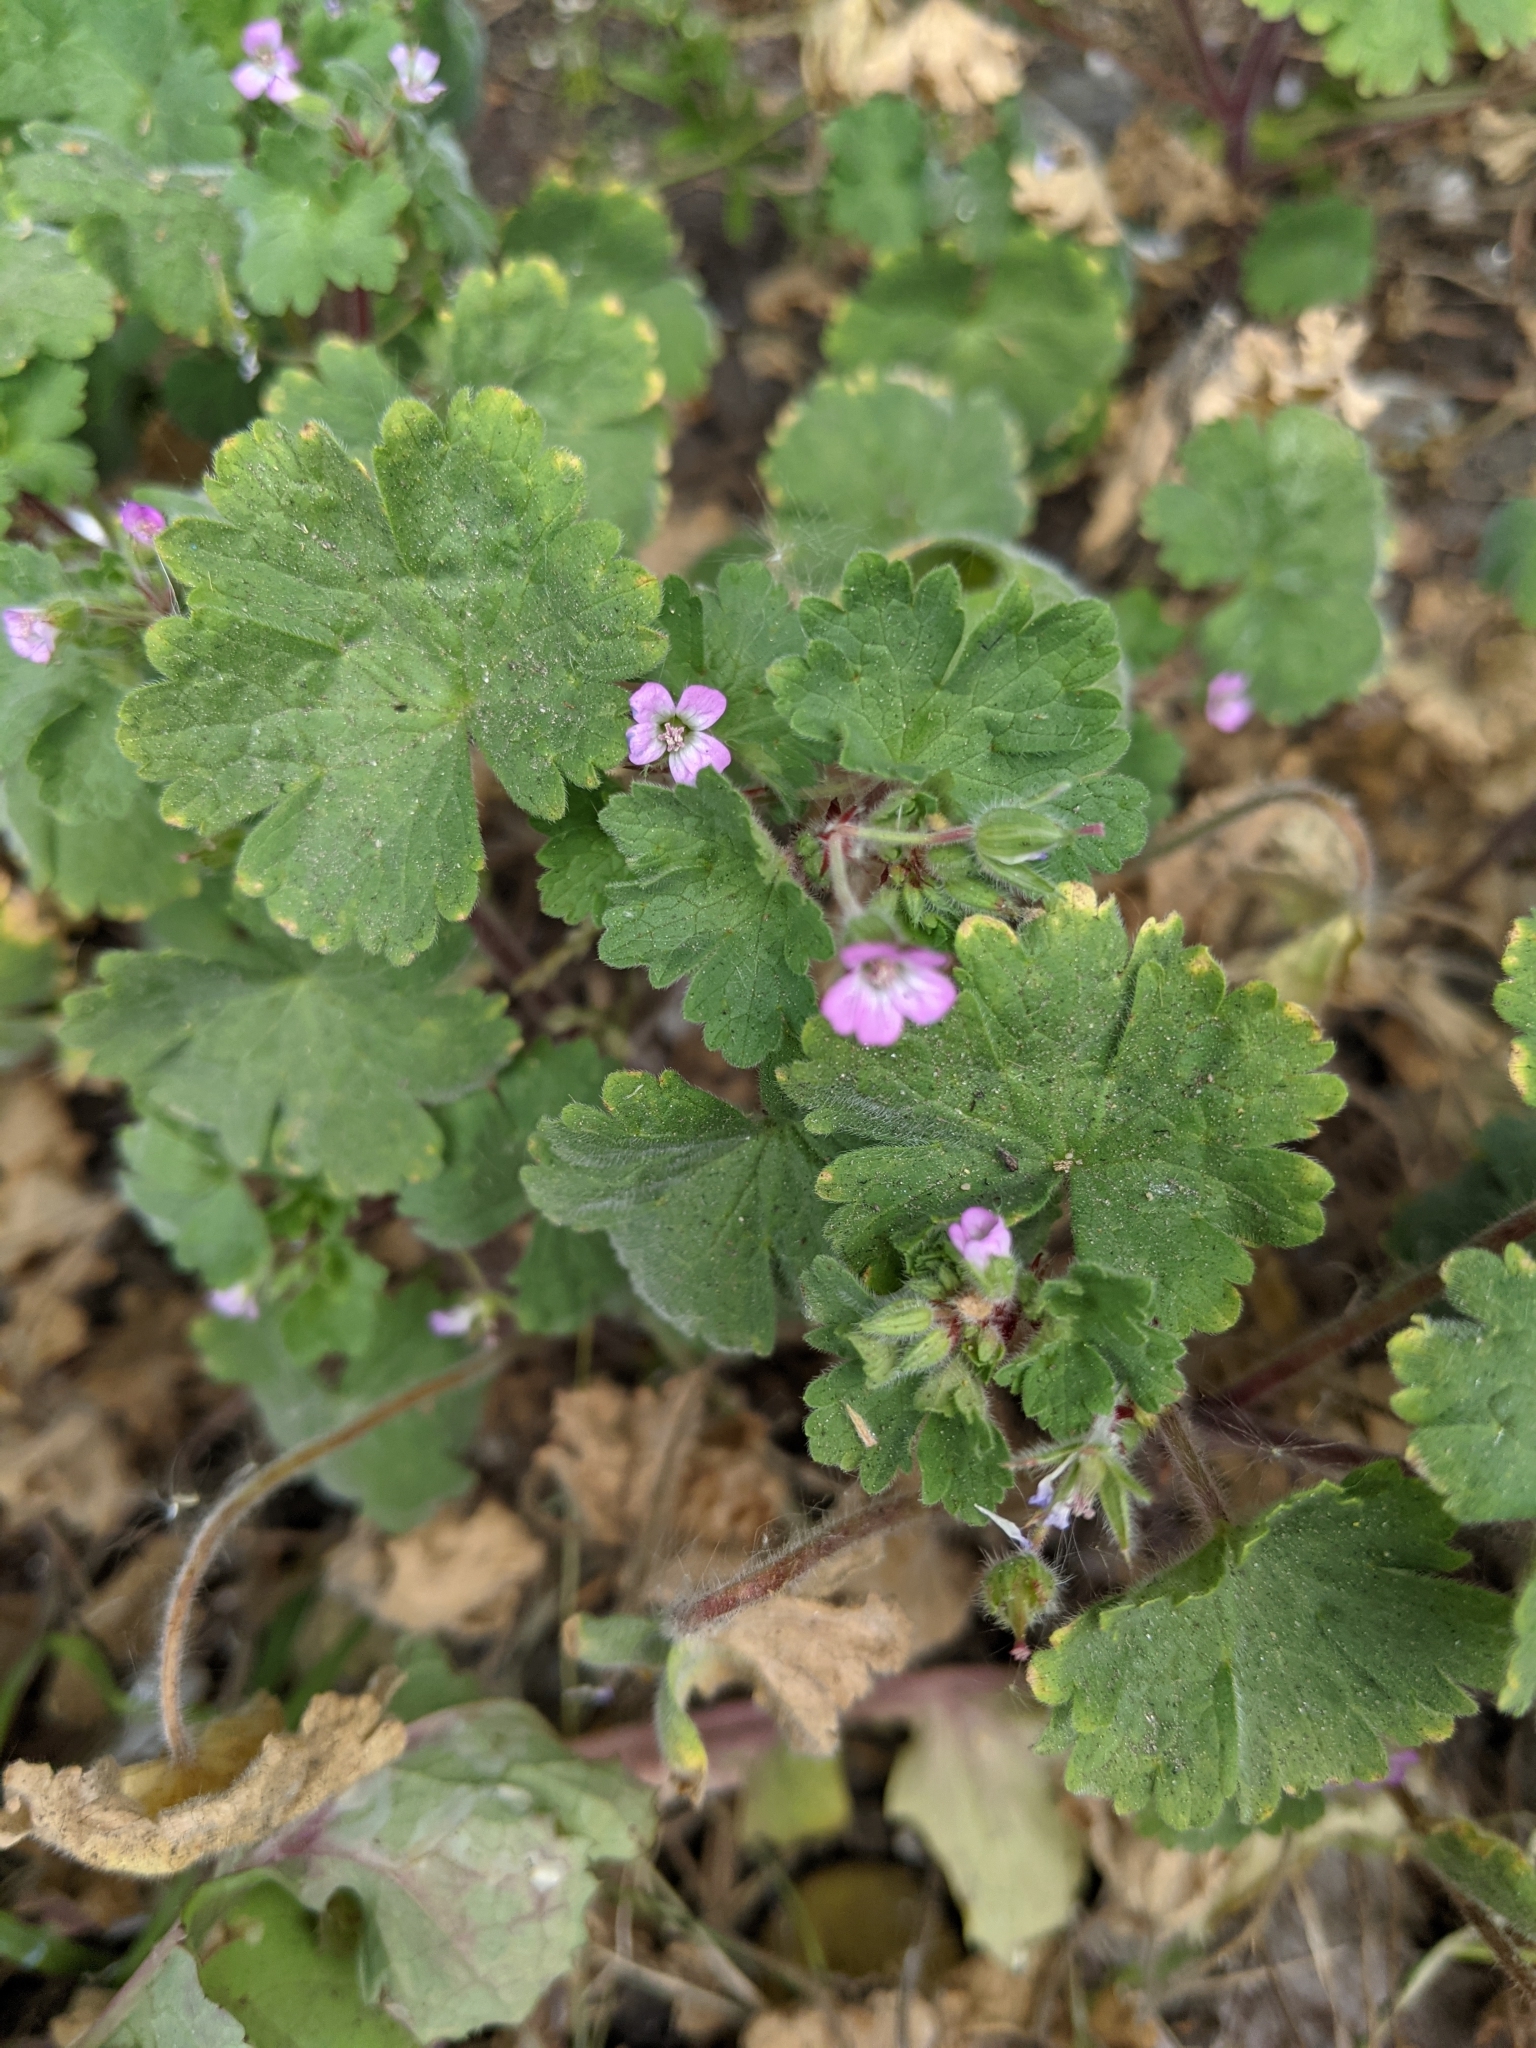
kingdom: Plantae
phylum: Tracheophyta
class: Magnoliopsida
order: Geraniales
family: Geraniaceae
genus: Geranium
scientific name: Geranium rotundifolium
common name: Round-leaved crane's-bill
